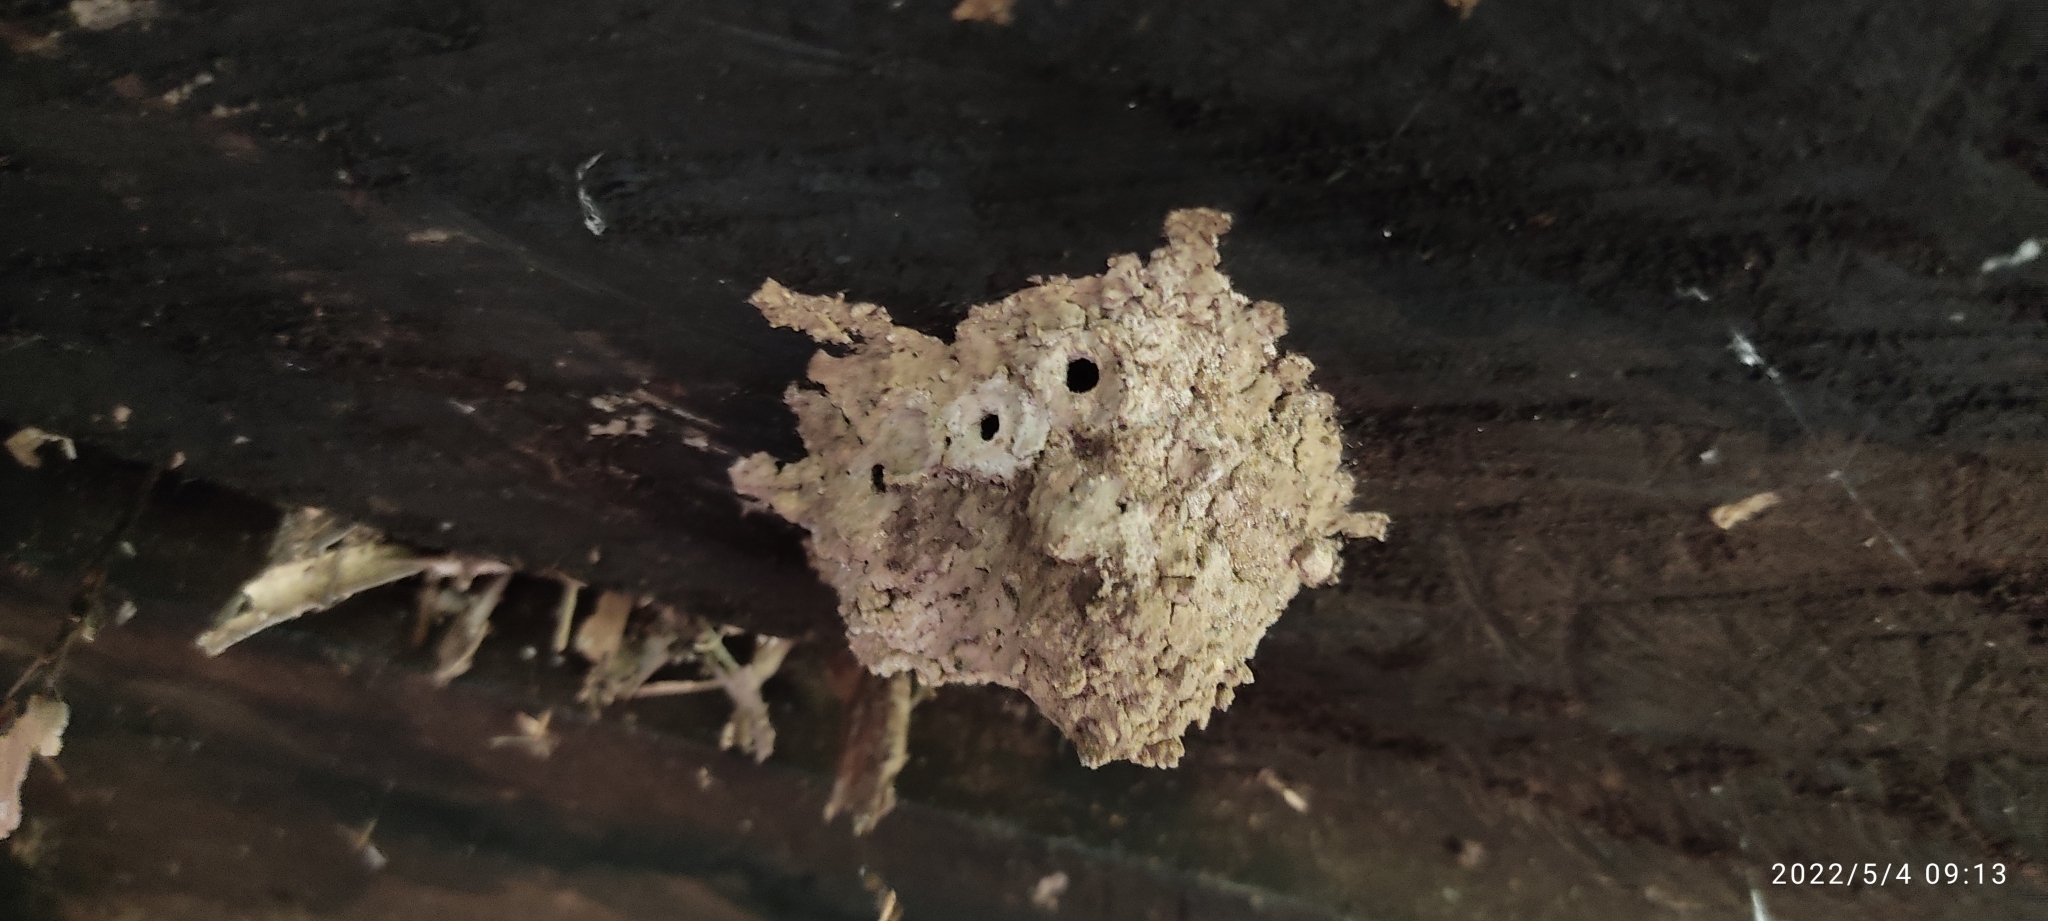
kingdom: Animalia
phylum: Arthropoda
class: Insecta
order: Hymenoptera
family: Eumenidae
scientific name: Eumenidae
